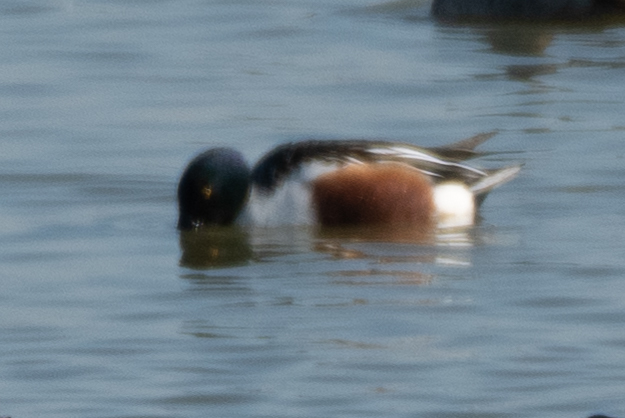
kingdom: Animalia
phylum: Chordata
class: Aves
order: Anseriformes
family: Anatidae
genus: Spatula
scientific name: Spatula clypeata
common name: Northern shoveler
